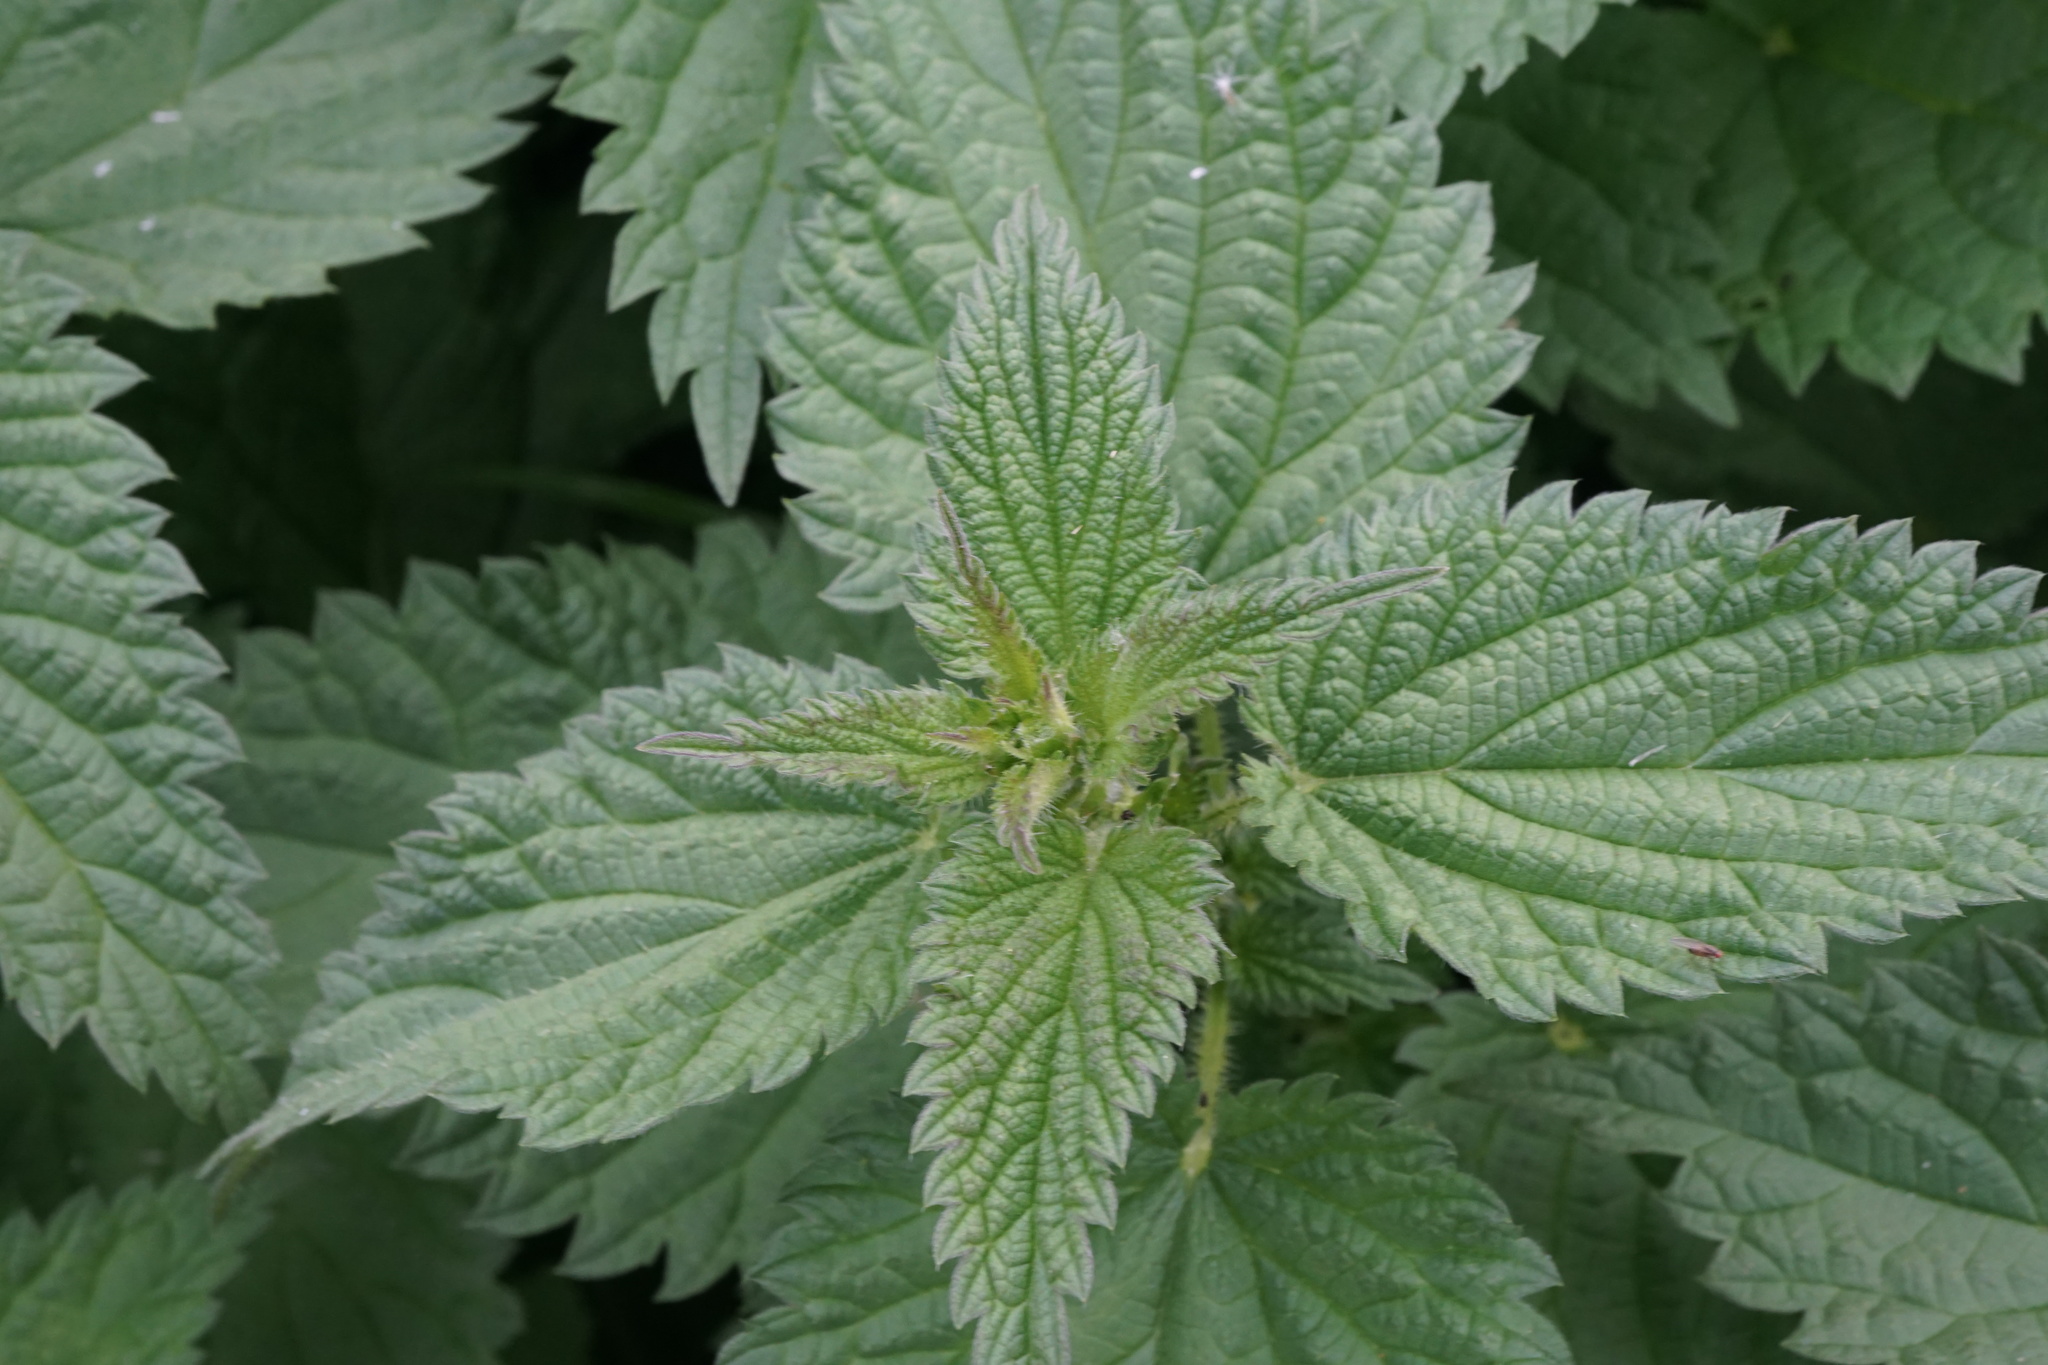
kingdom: Plantae
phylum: Tracheophyta
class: Magnoliopsida
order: Rosales
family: Urticaceae
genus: Urtica
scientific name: Urtica dioica
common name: Common nettle
